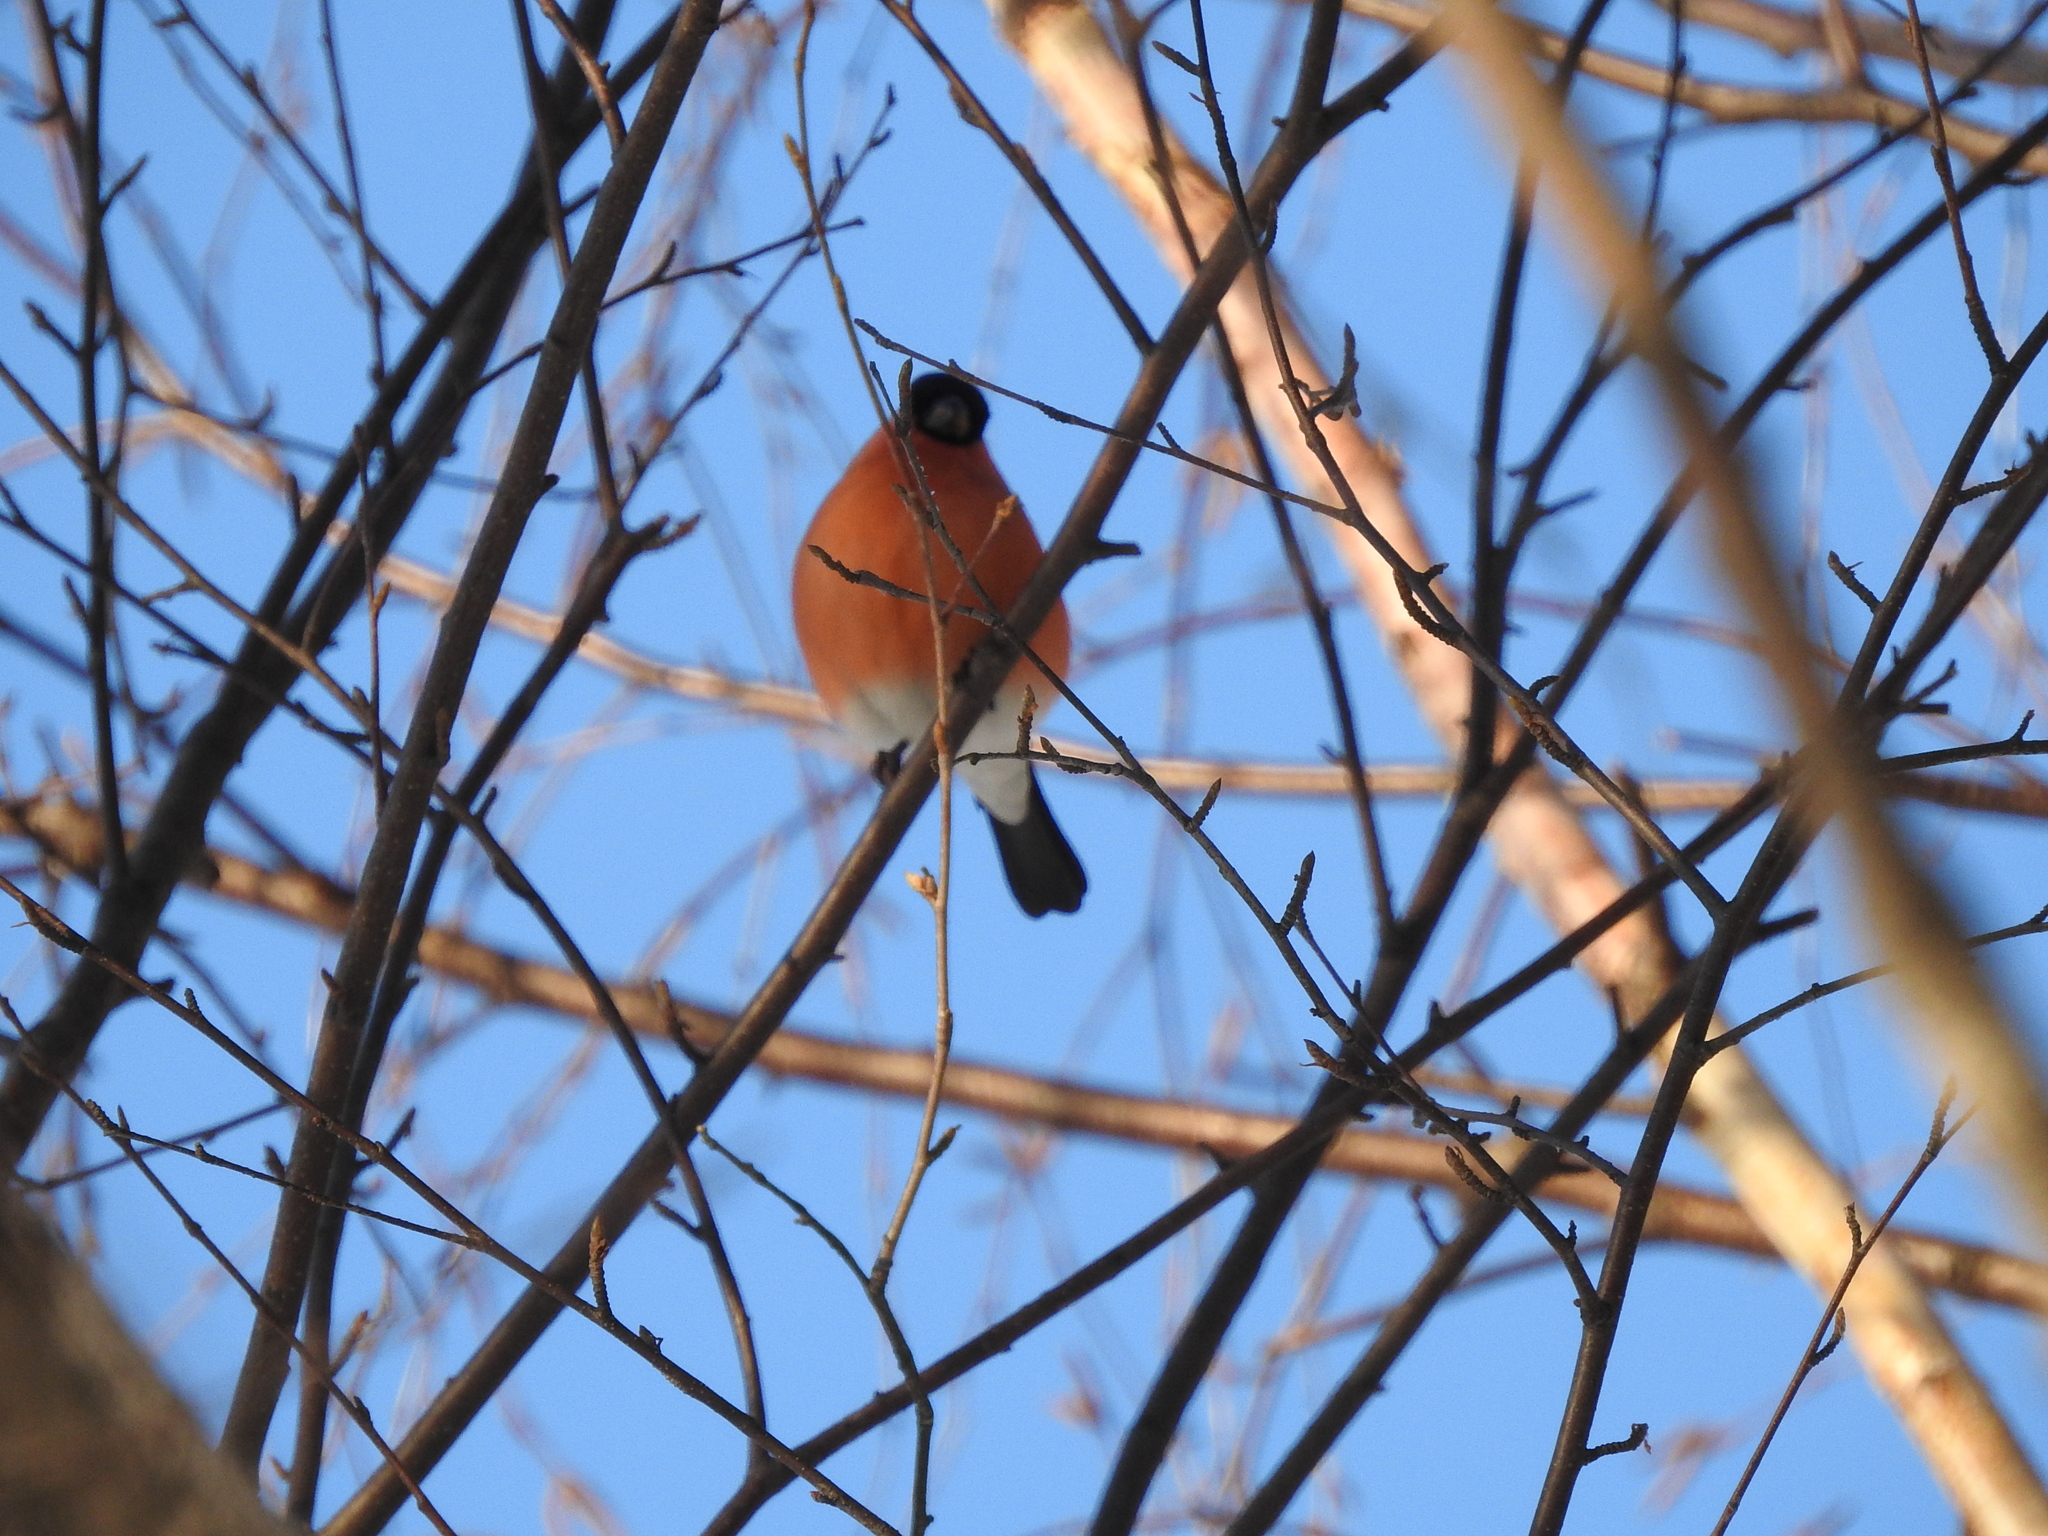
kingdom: Animalia
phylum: Chordata
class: Aves
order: Passeriformes
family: Fringillidae
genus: Pyrrhula
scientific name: Pyrrhula pyrrhula
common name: Eurasian bullfinch
